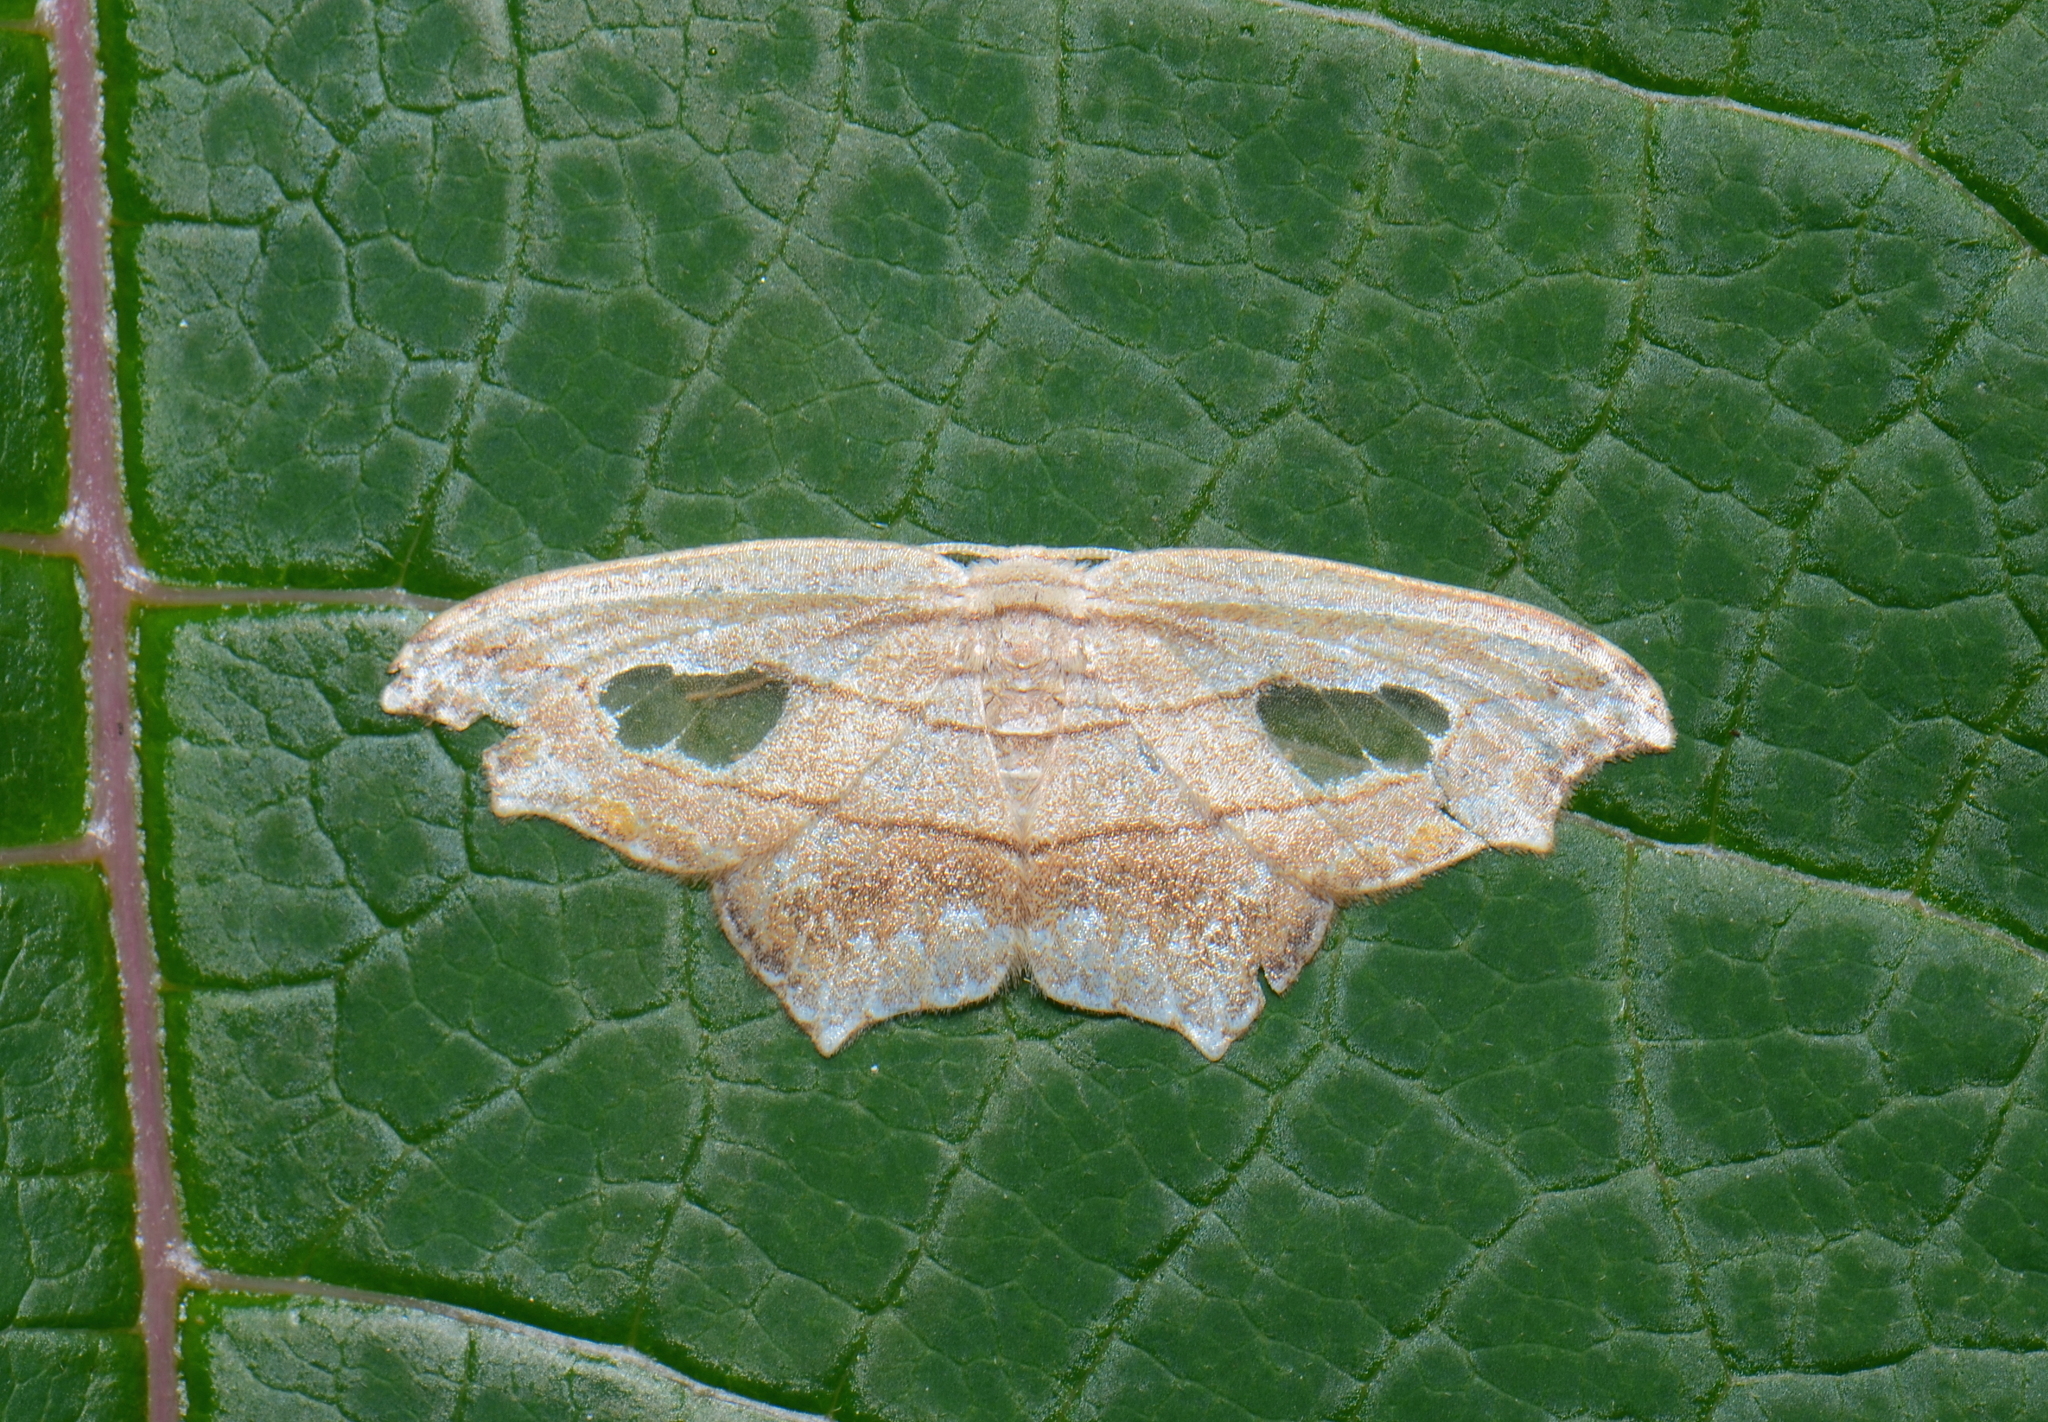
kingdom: Animalia
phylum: Arthropoda
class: Insecta
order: Lepidoptera
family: Drepanidae
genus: Leucoblepsis
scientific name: Leucoblepsis neoma
